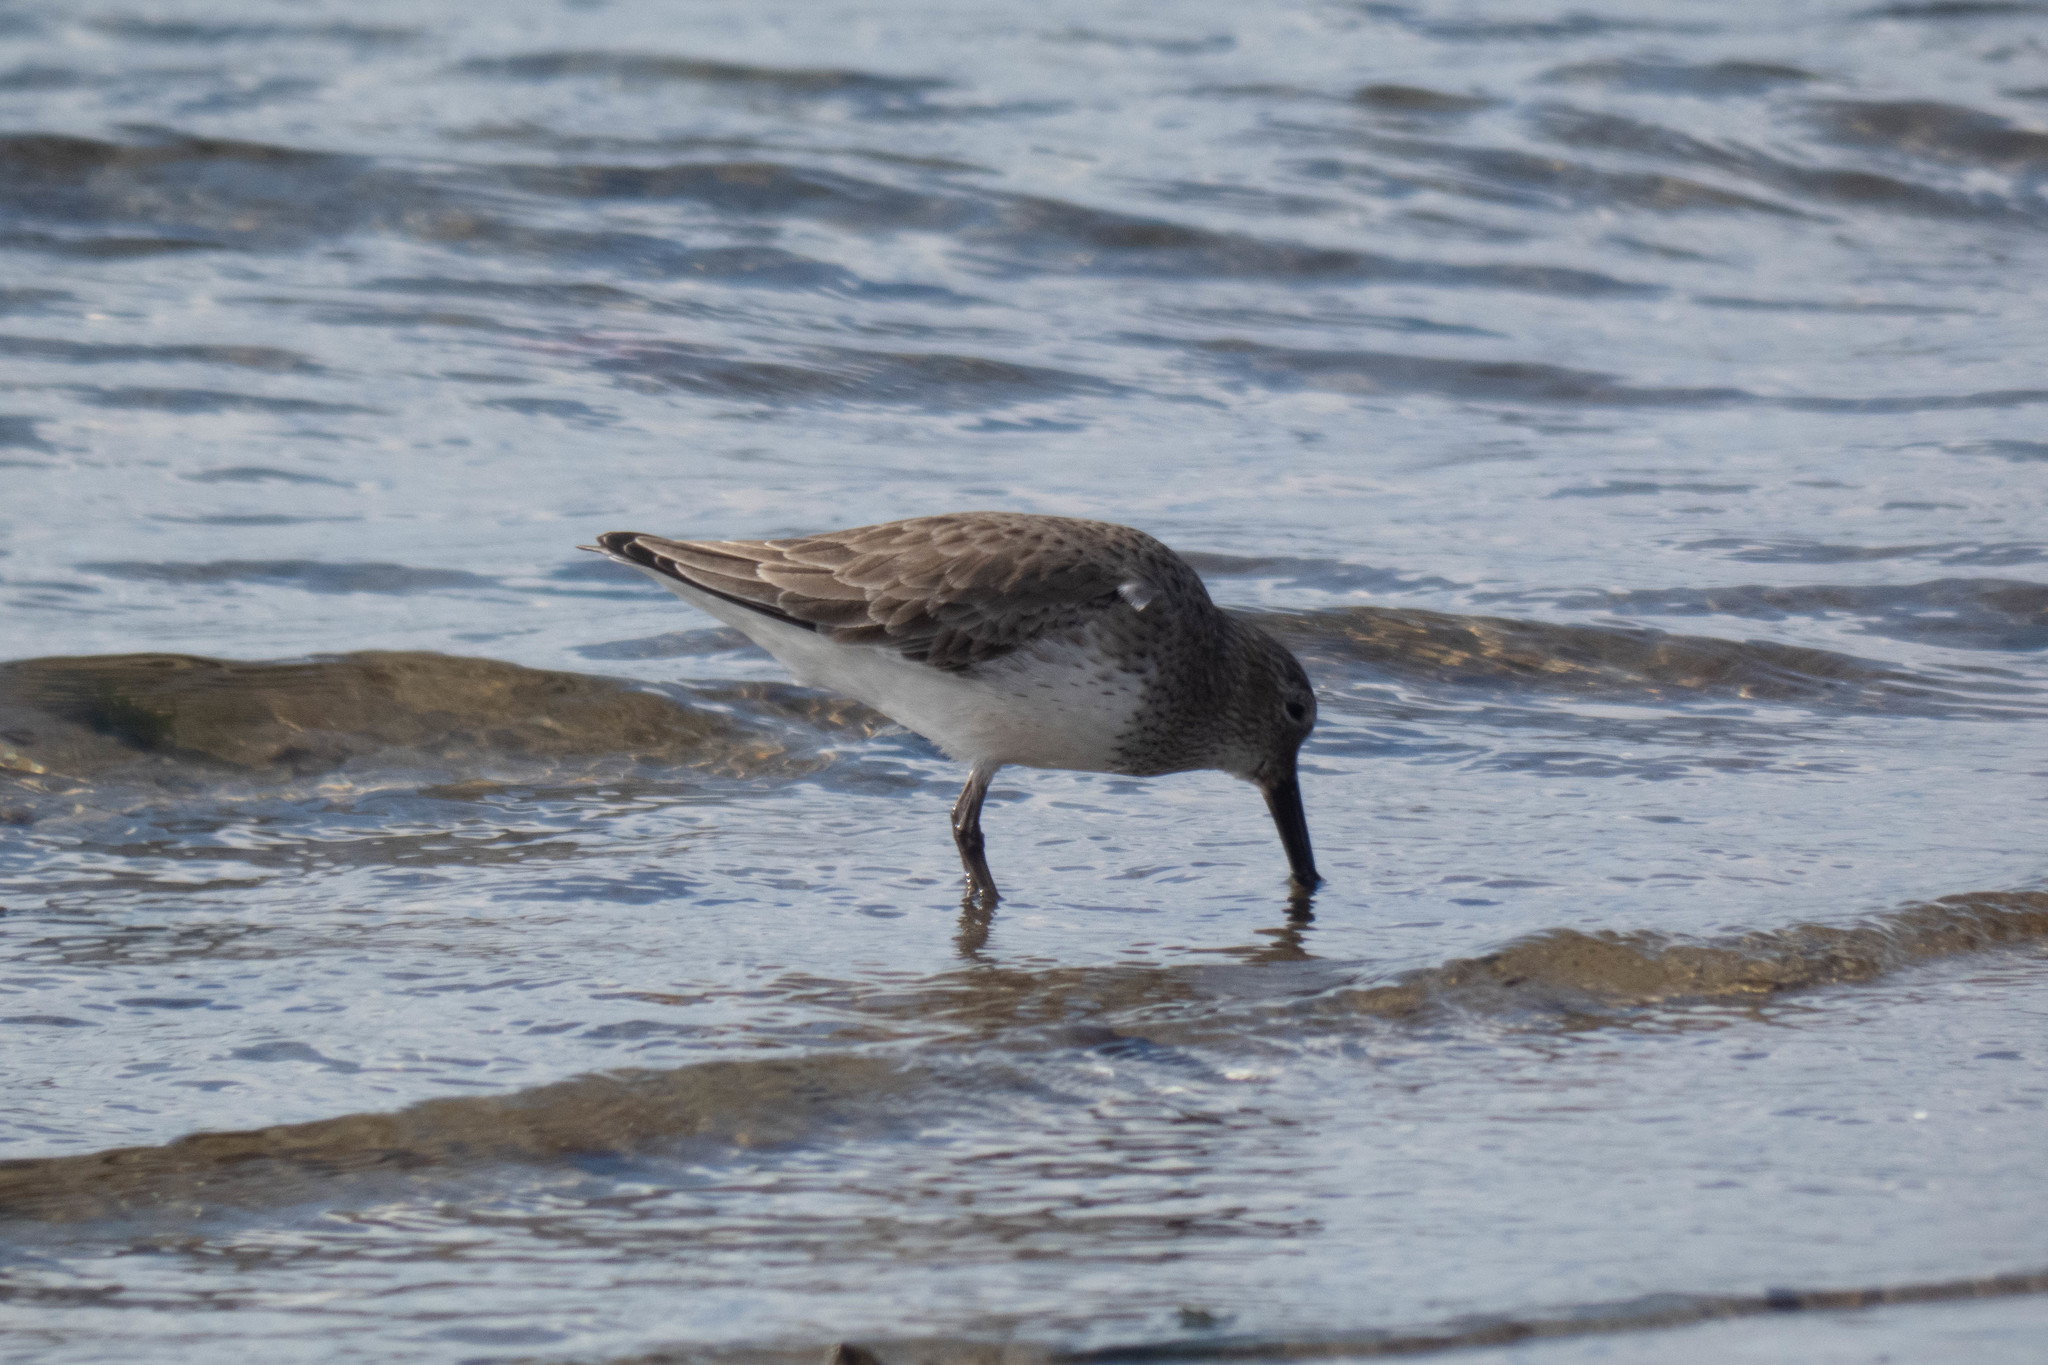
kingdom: Animalia
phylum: Chordata
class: Aves
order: Charadriiformes
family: Scolopacidae
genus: Calidris
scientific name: Calidris alpina
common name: Dunlin
